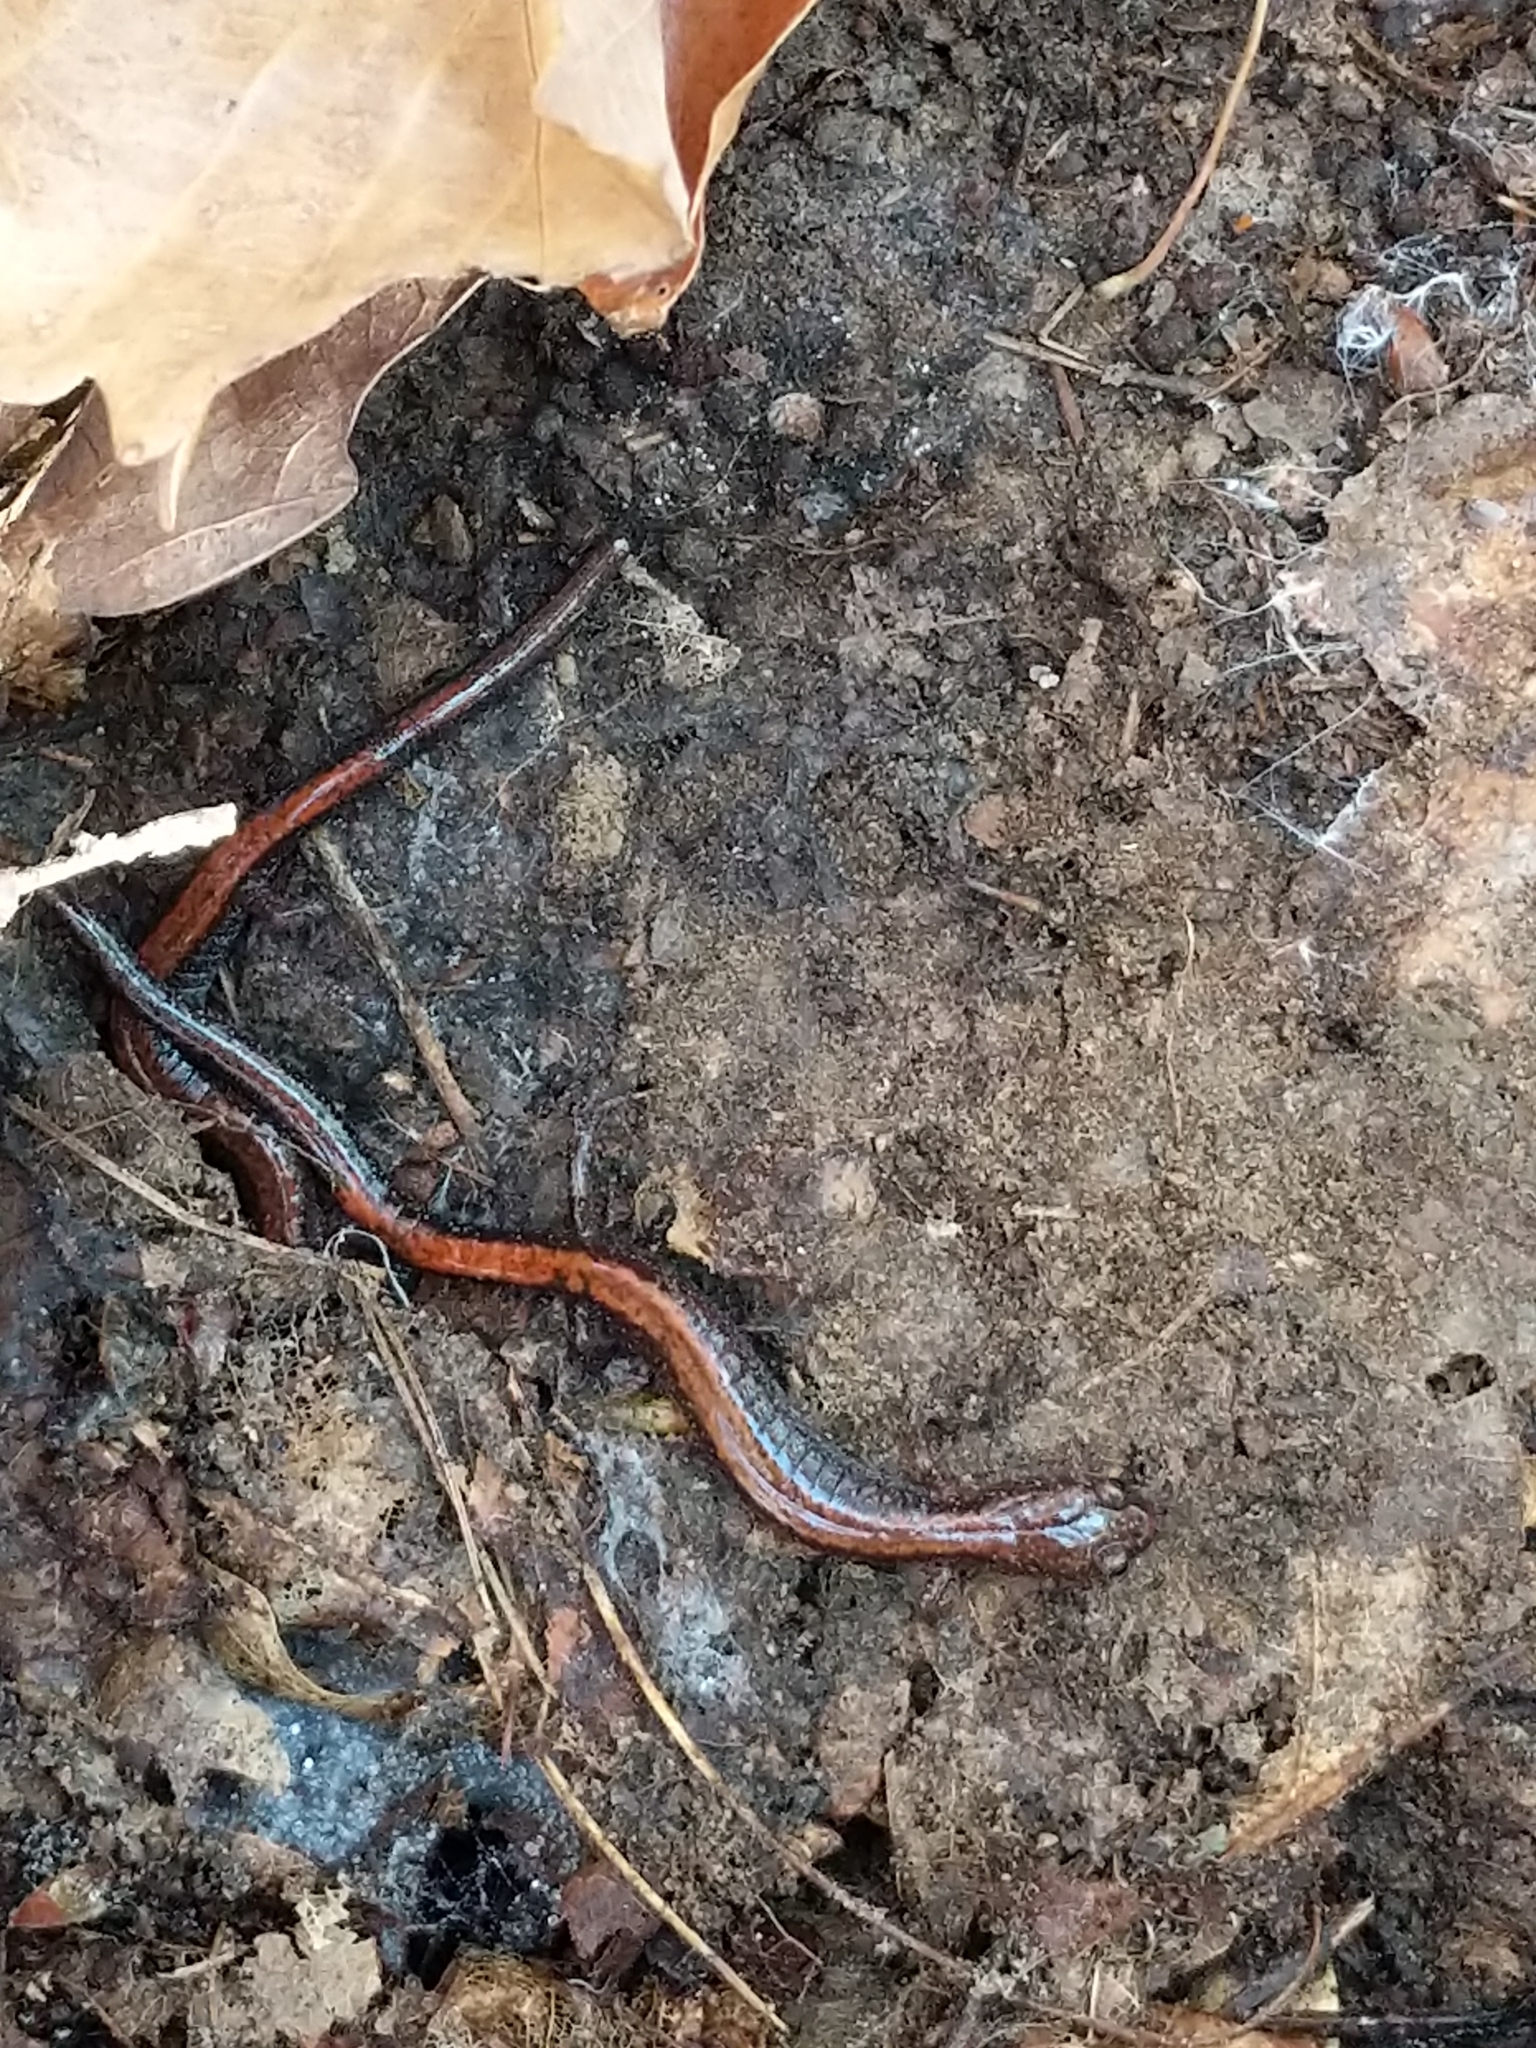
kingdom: Animalia
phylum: Chordata
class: Amphibia
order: Caudata
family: Plethodontidae
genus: Plethodon
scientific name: Plethodon cinereus
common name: Redback salamander
